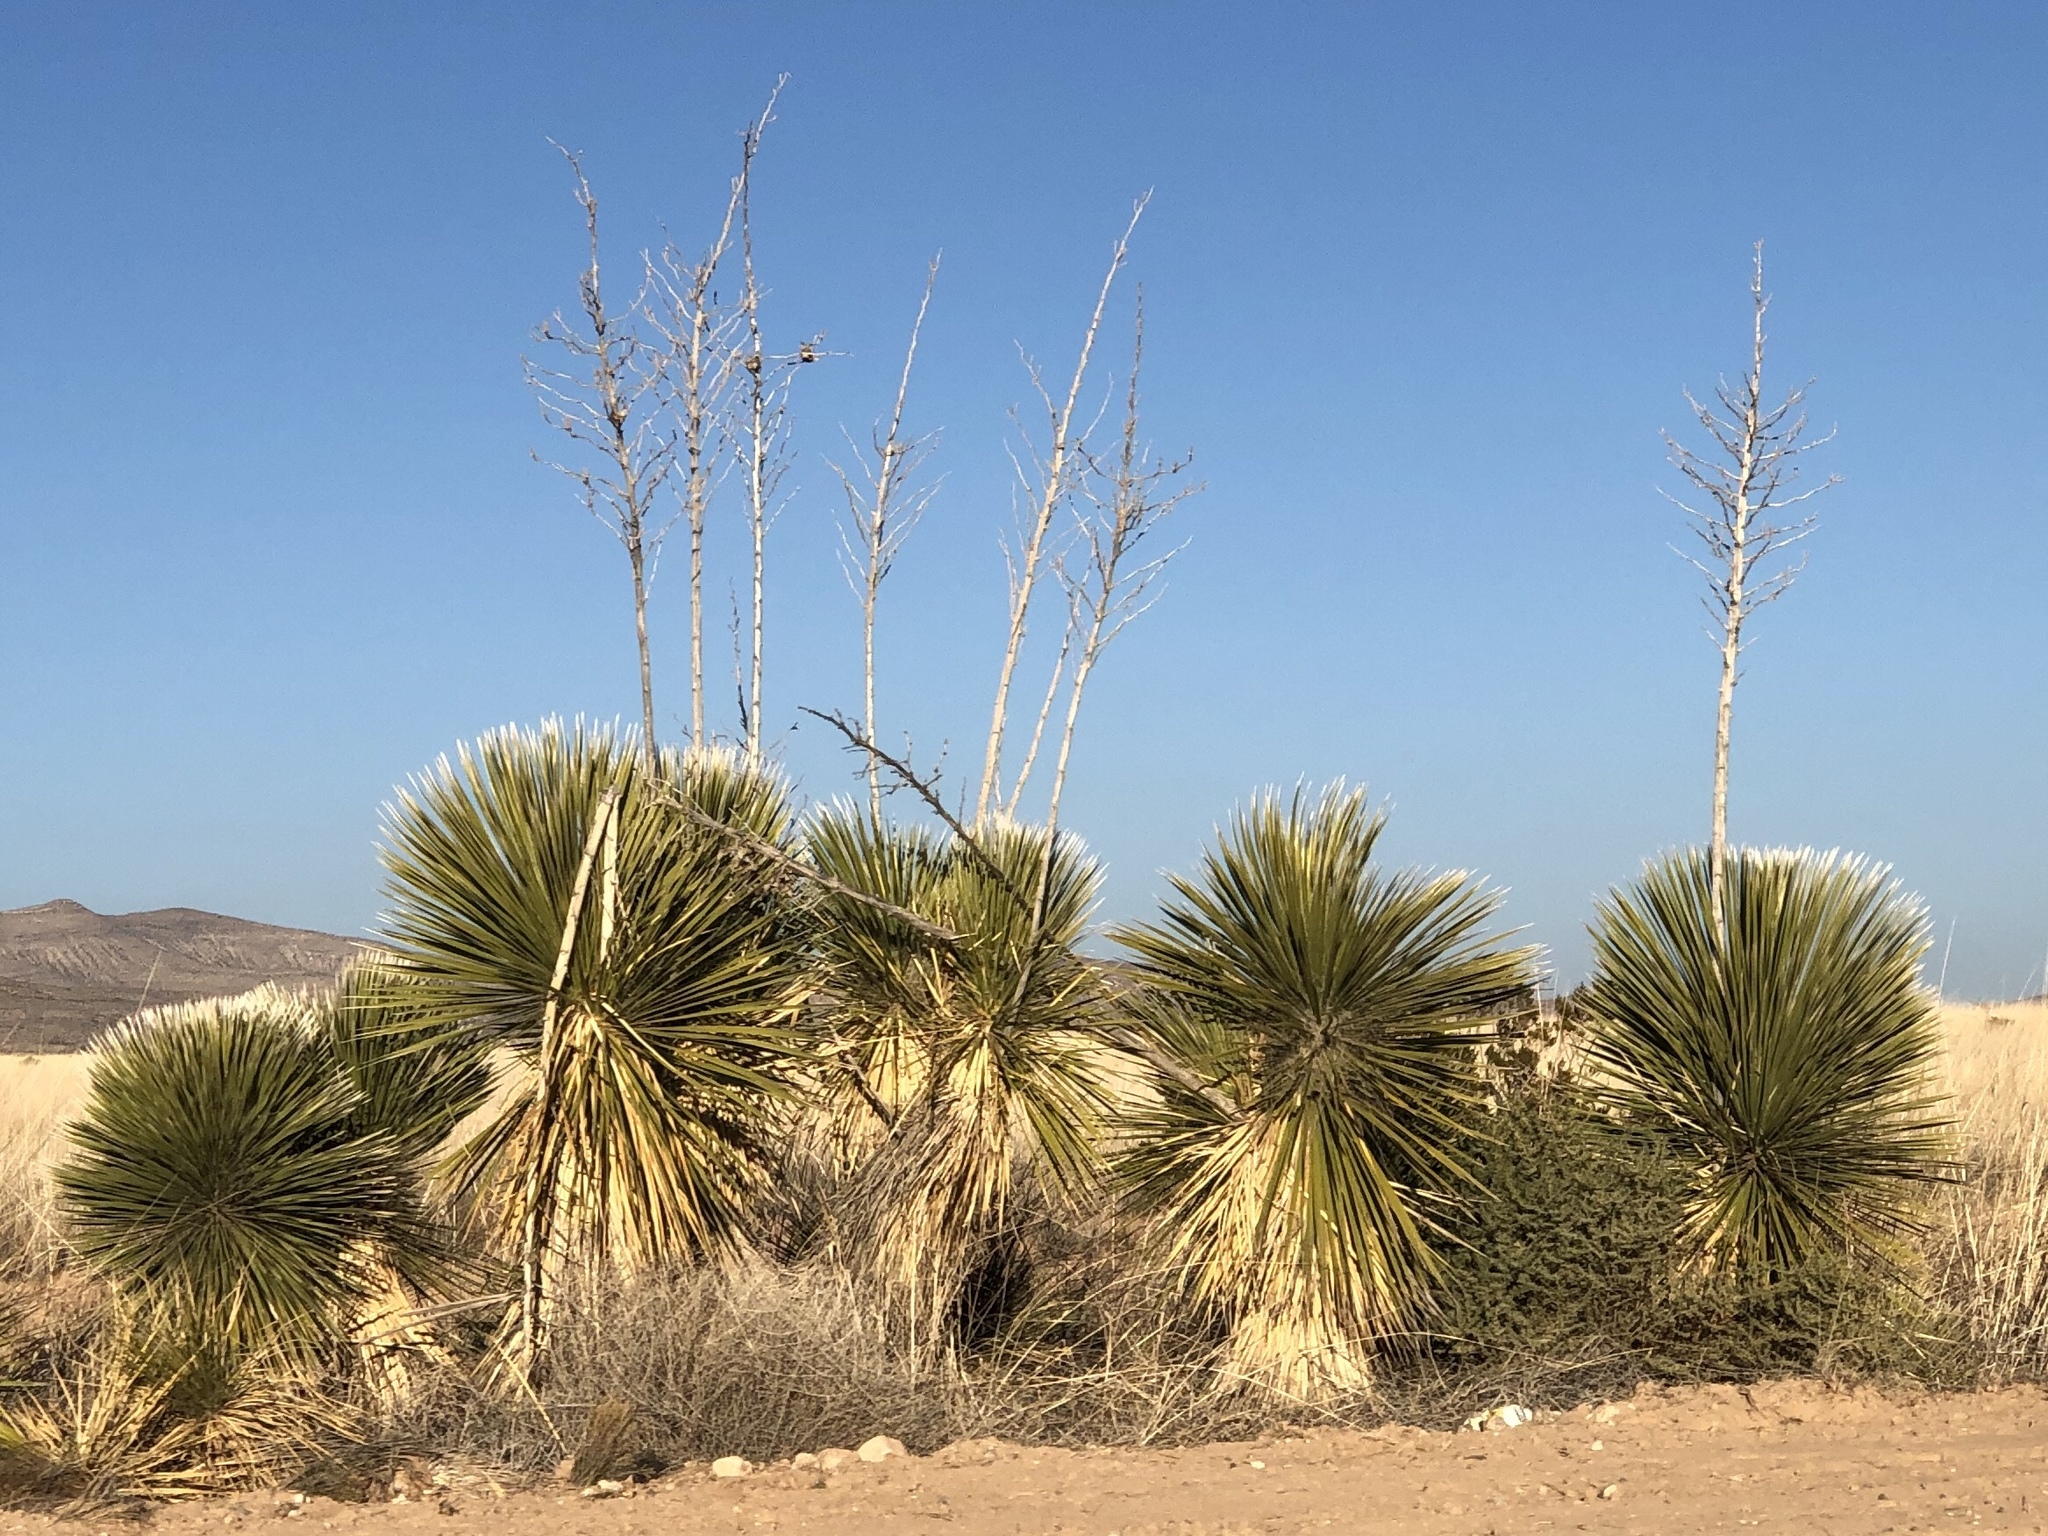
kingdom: Plantae
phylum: Tracheophyta
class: Liliopsida
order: Asparagales
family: Asparagaceae
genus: Yucca
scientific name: Yucca elata
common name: Palmella
